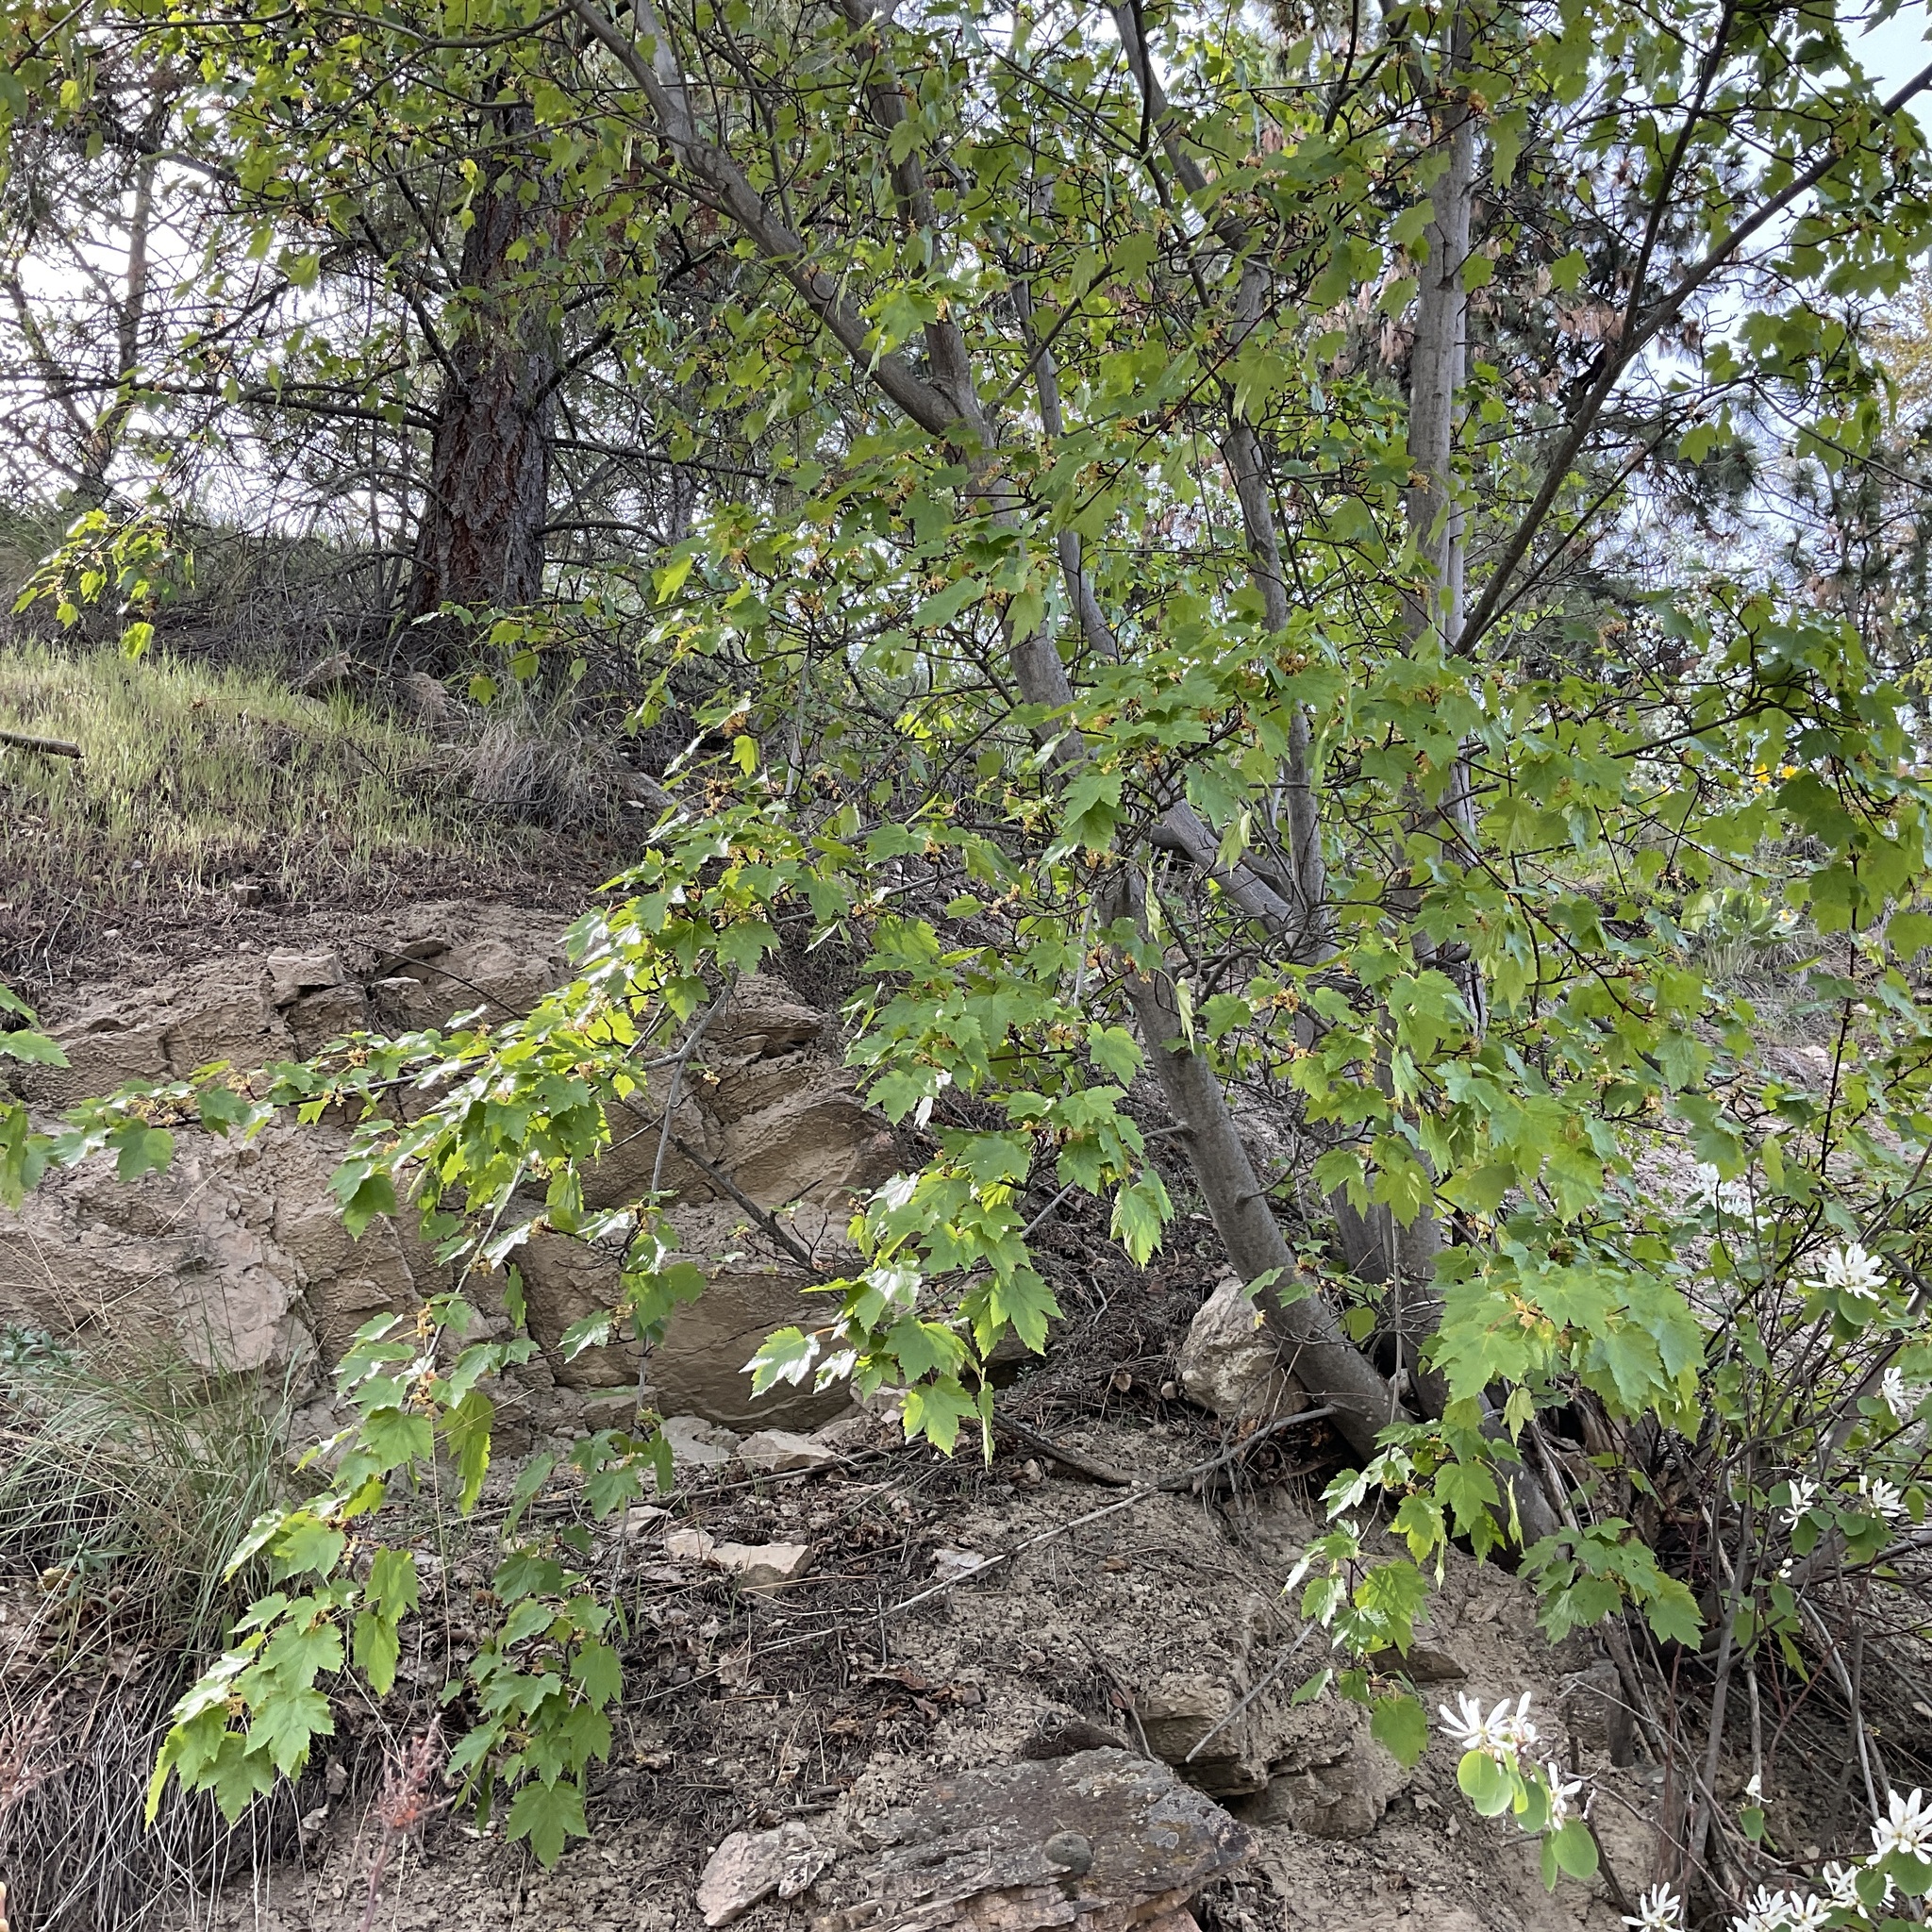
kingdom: Plantae
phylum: Tracheophyta
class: Magnoliopsida
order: Sapindales
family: Sapindaceae
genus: Acer
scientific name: Acer glabrum
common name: Rocky mountain maple
